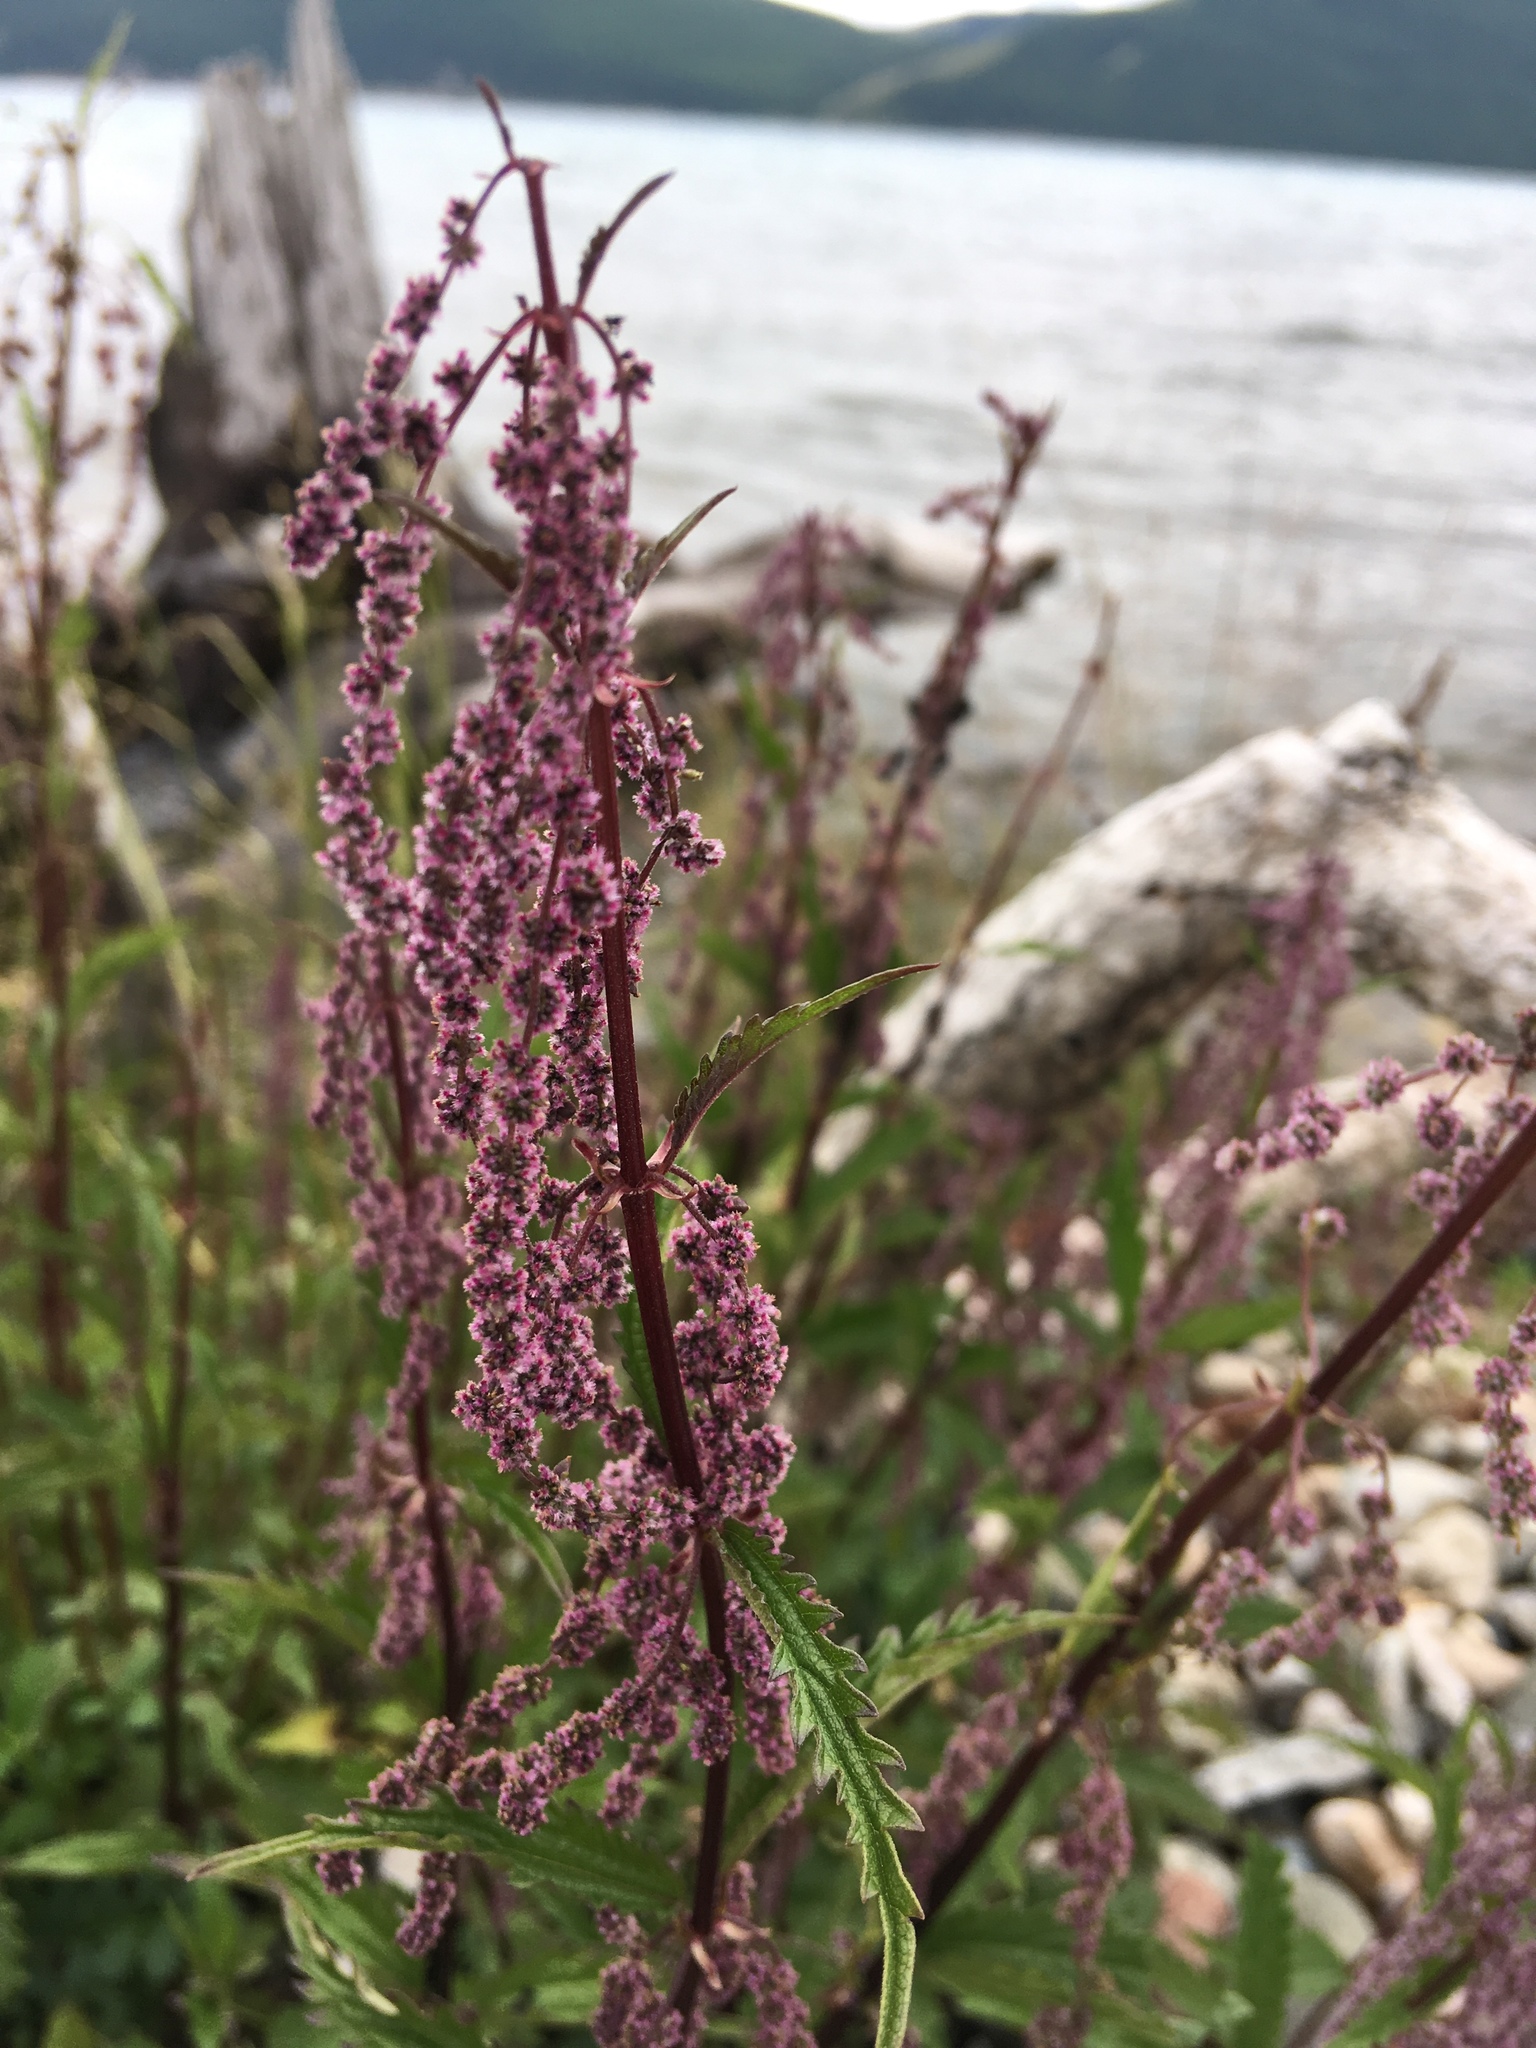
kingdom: Plantae
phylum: Tracheophyta
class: Magnoliopsida
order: Rosales
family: Urticaceae
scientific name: Urticaceae
